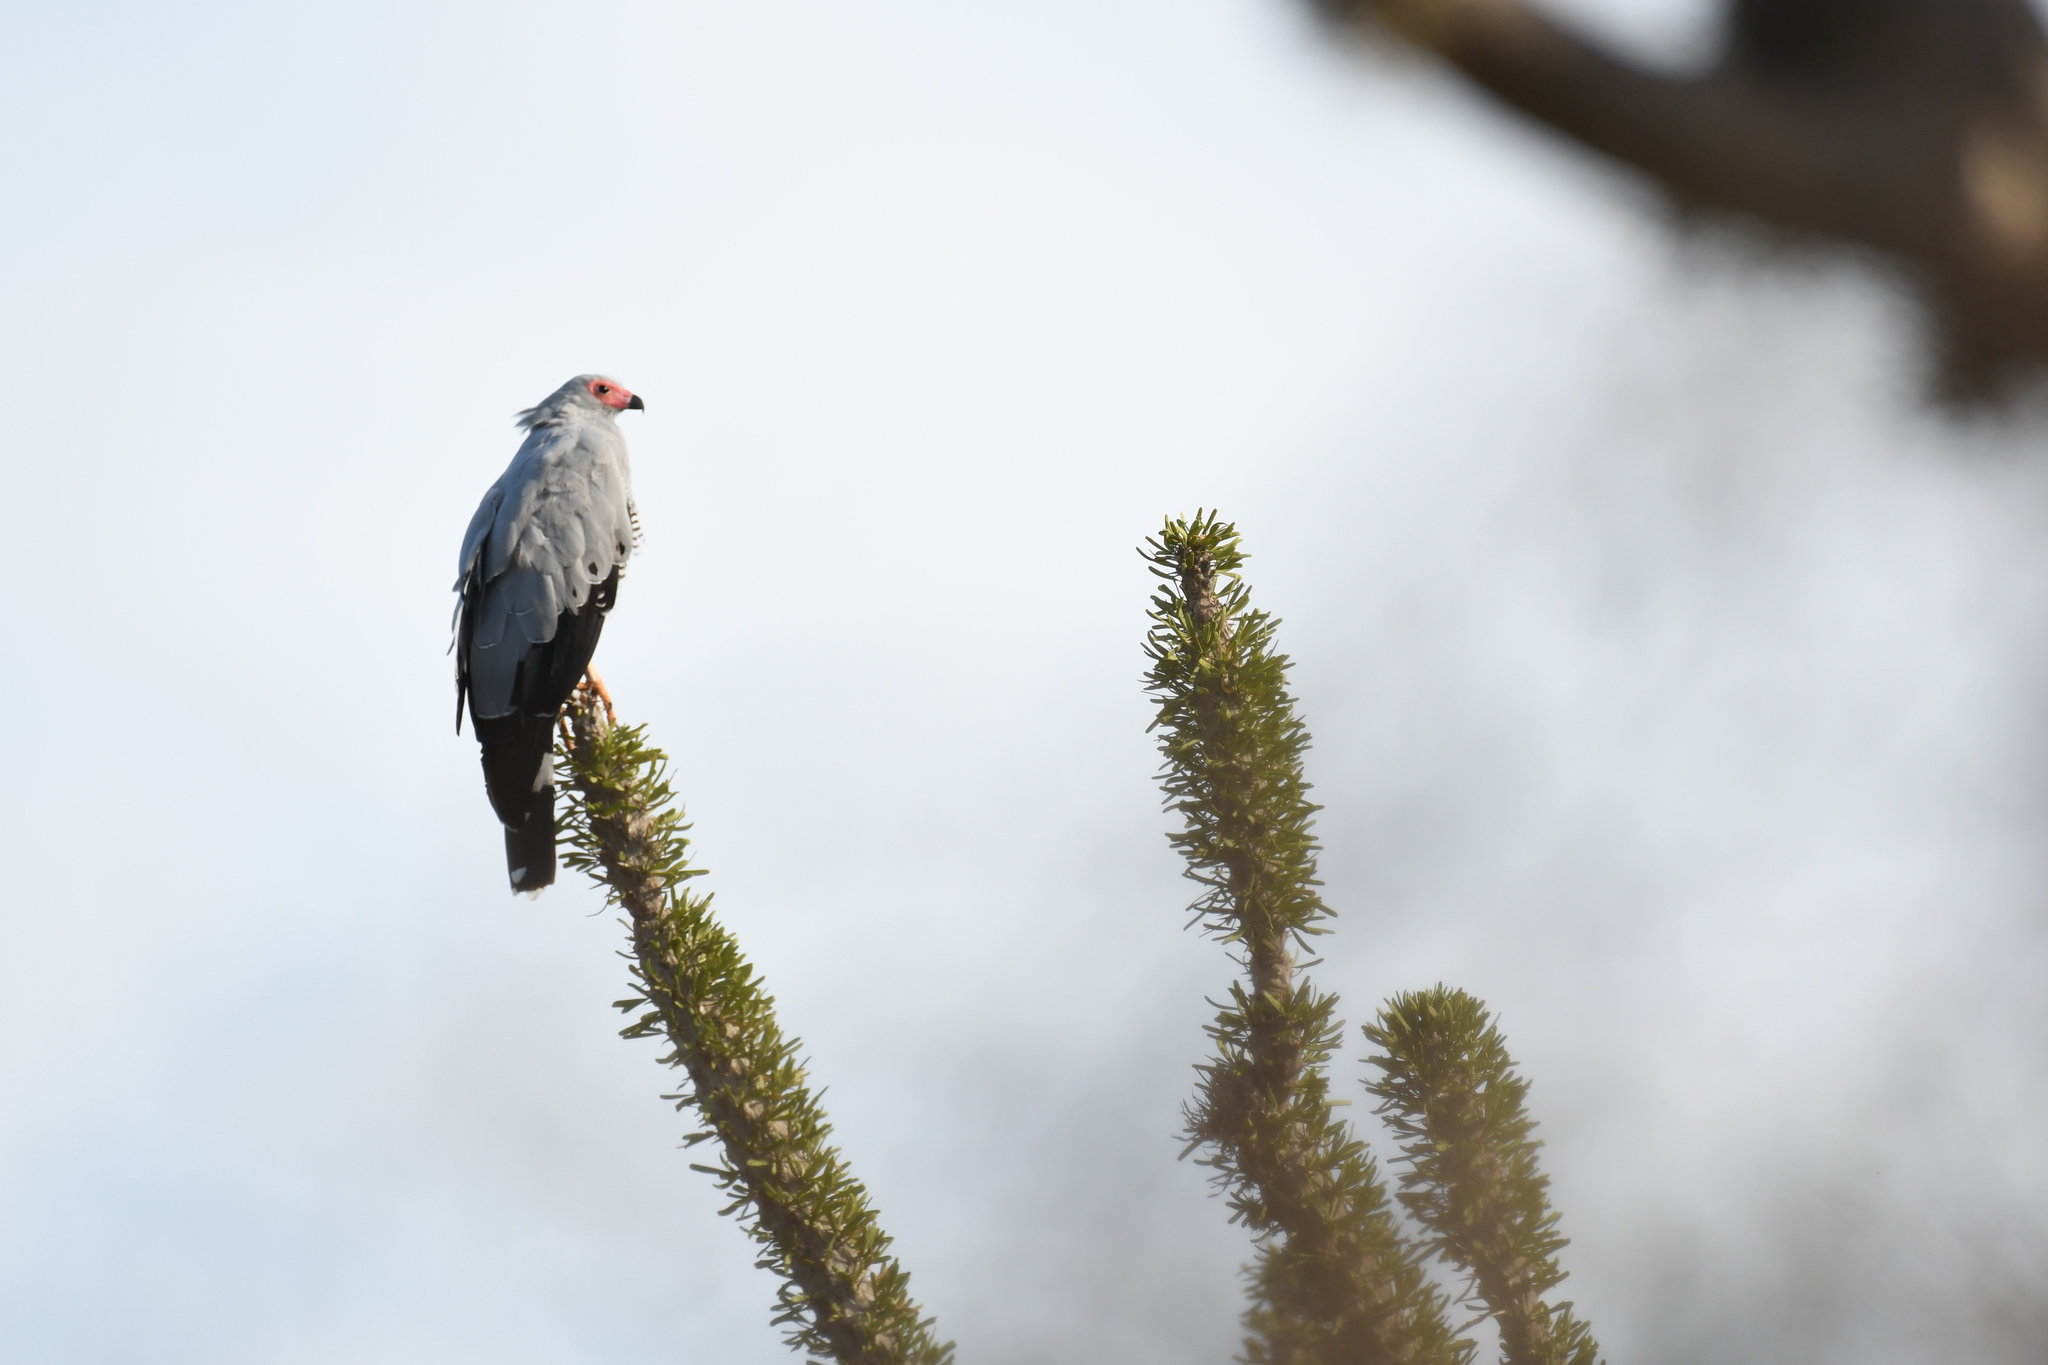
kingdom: Animalia
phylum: Chordata
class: Aves
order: Accipitriformes
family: Accipitridae
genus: Polyboroides
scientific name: Polyboroides radiatus
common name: Madagascar harrier-hawk
